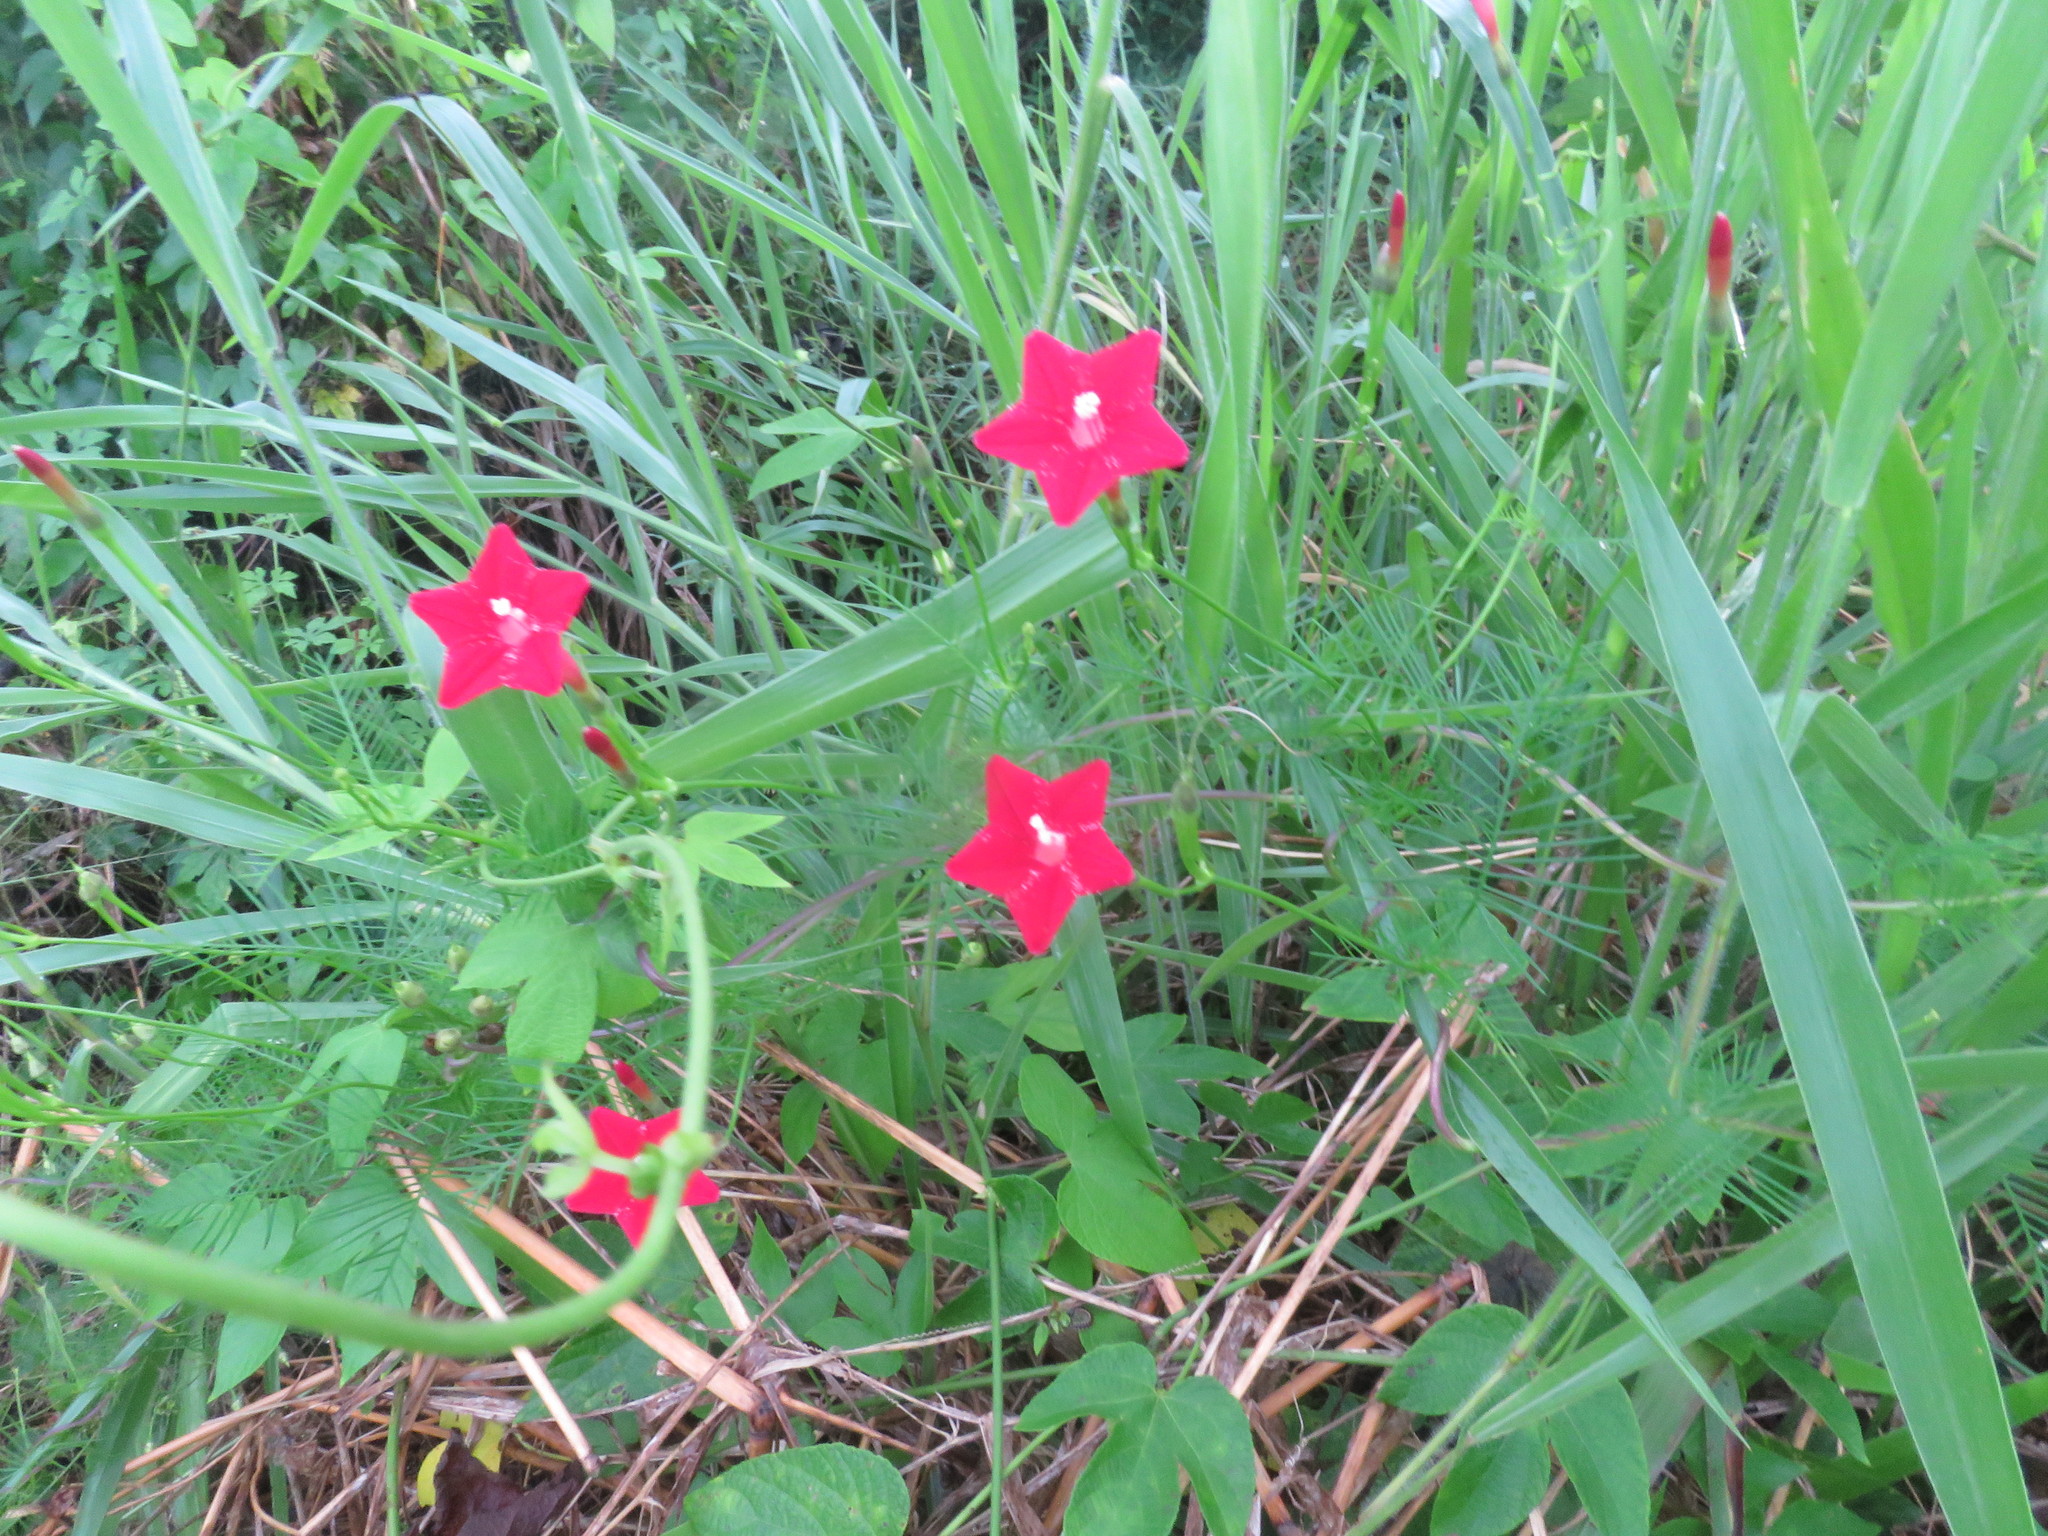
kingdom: Plantae
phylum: Tracheophyta
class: Magnoliopsida
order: Solanales
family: Convolvulaceae
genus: Ipomoea
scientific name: Ipomoea quamoclit
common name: Cypress vine
